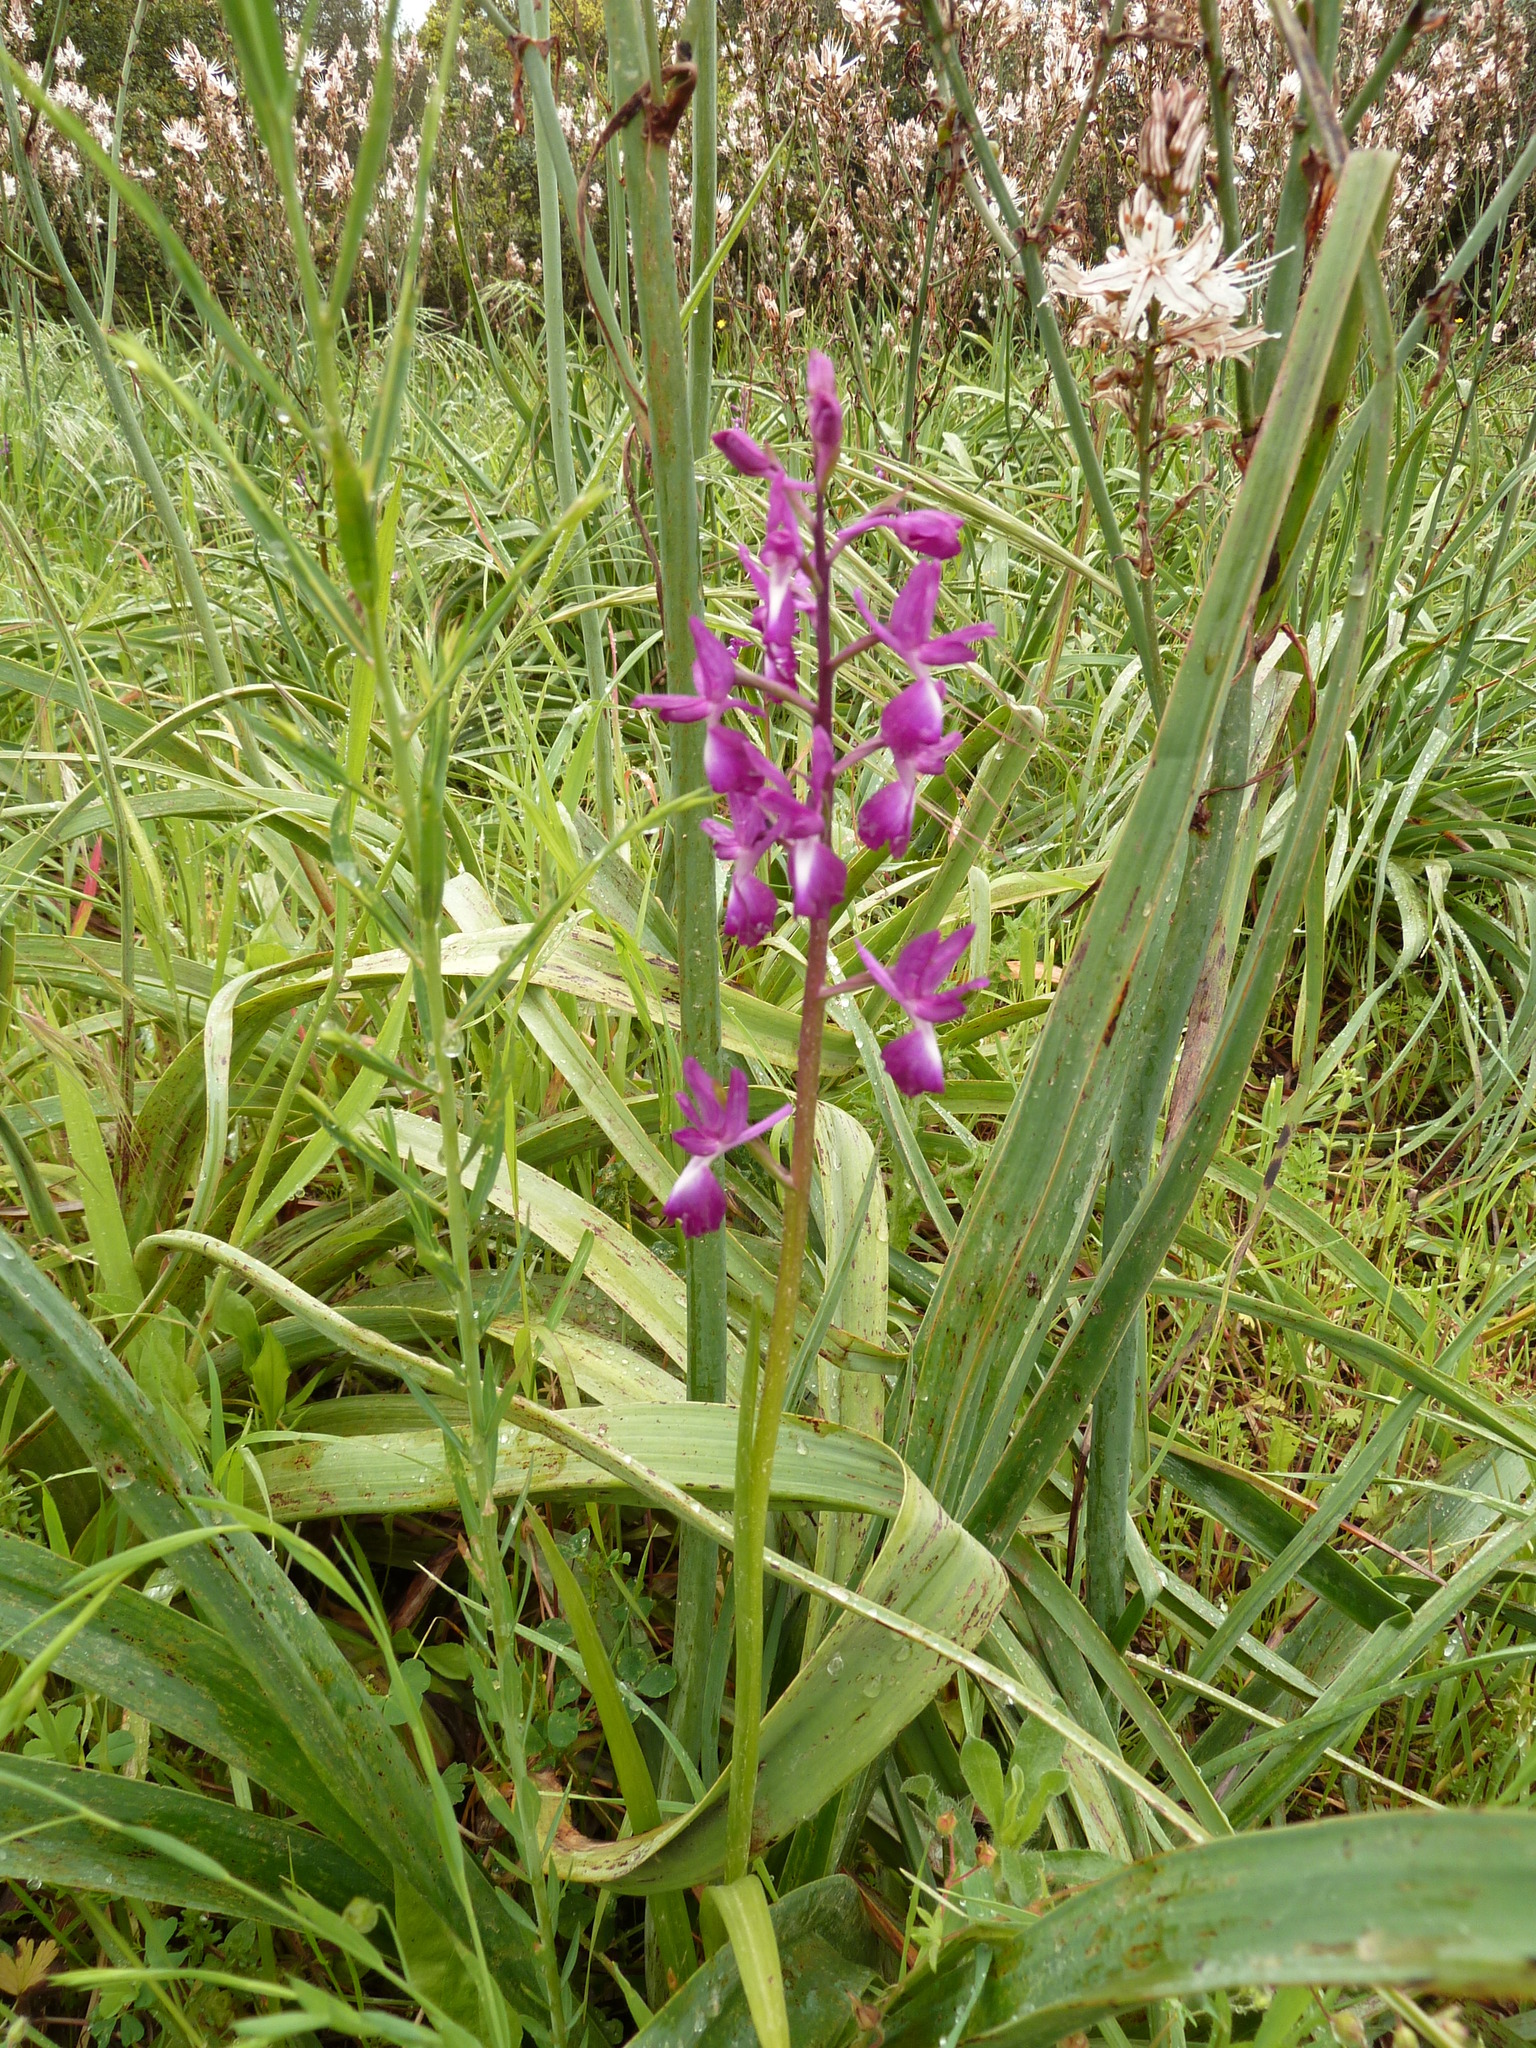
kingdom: Plantae
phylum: Tracheophyta
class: Liliopsida
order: Asparagales
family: Orchidaceae
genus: Anacamptis
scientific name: Anacamptis laxiflora
